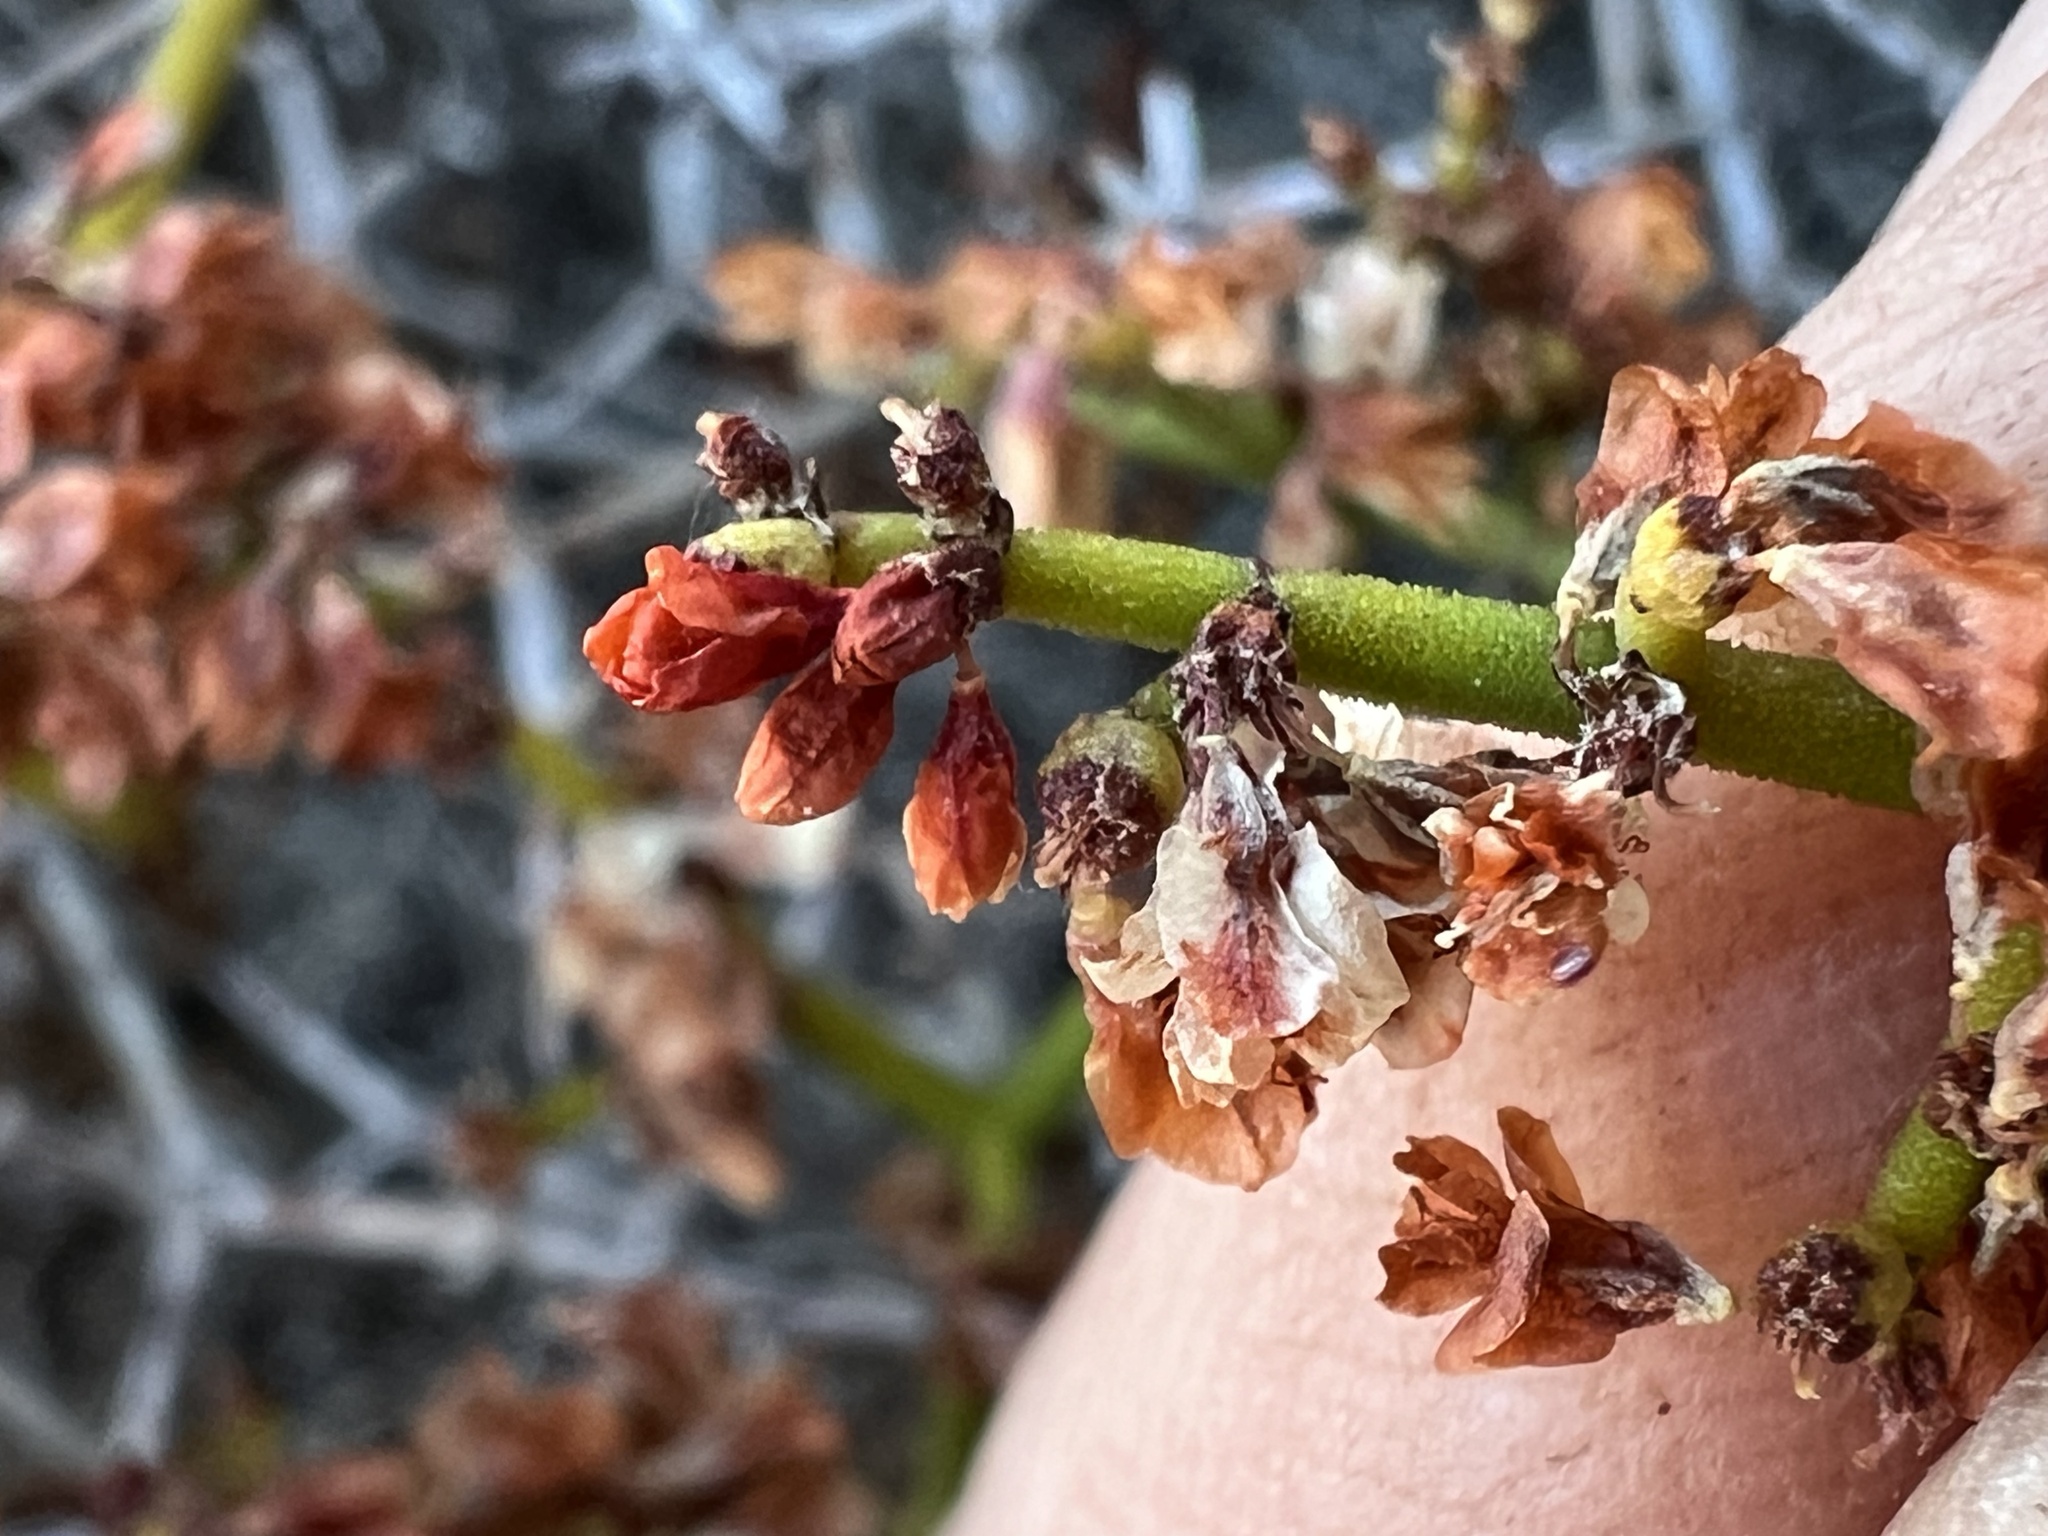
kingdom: Plantae
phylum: Tracheophyta
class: Magnoliopsida
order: Caryophyllales
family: Polygonaceae
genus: Eriogonum
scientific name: Eriogonum heermannii
